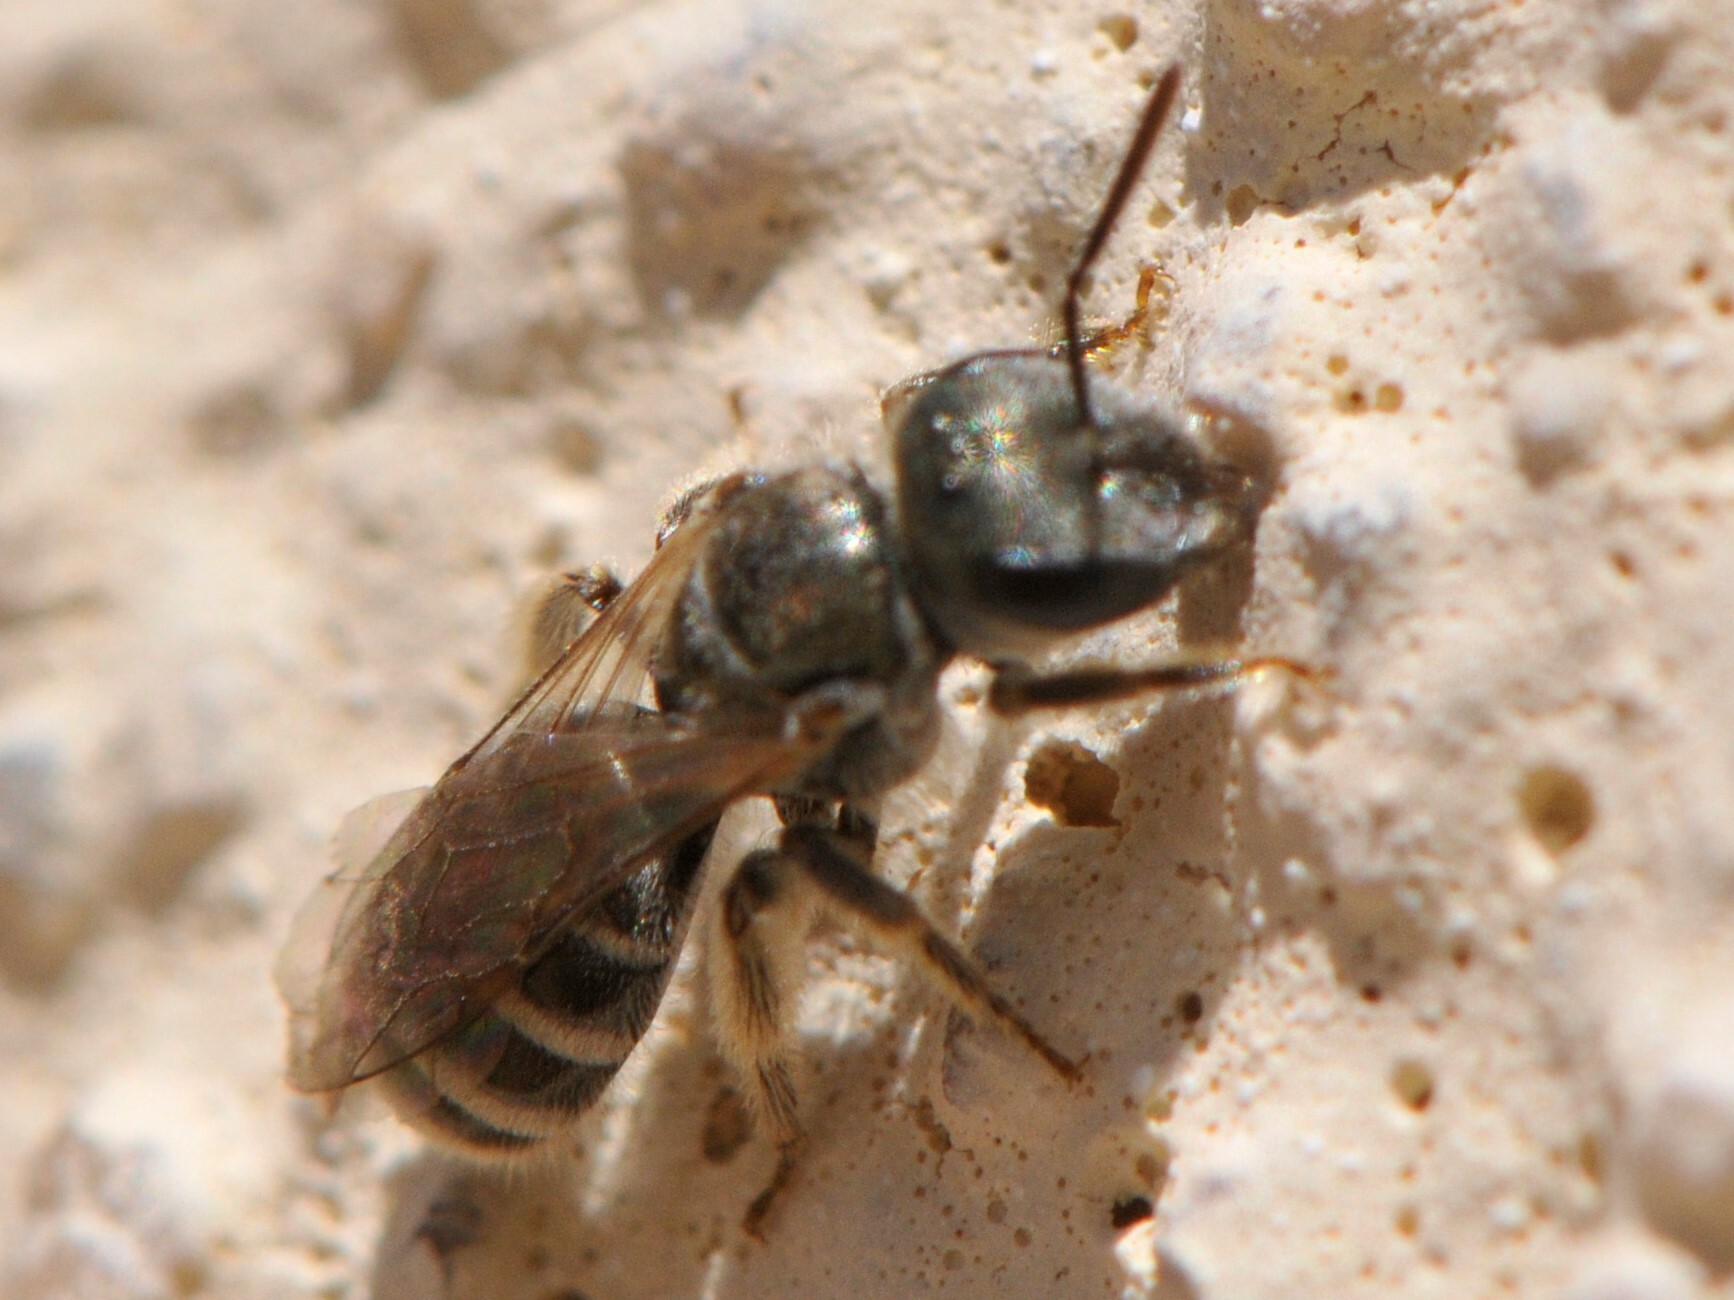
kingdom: Animalia
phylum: Arthropoda
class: Insecta
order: Hymenoptera
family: Halictidae
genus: Halictus
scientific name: Halictus tripartitus
